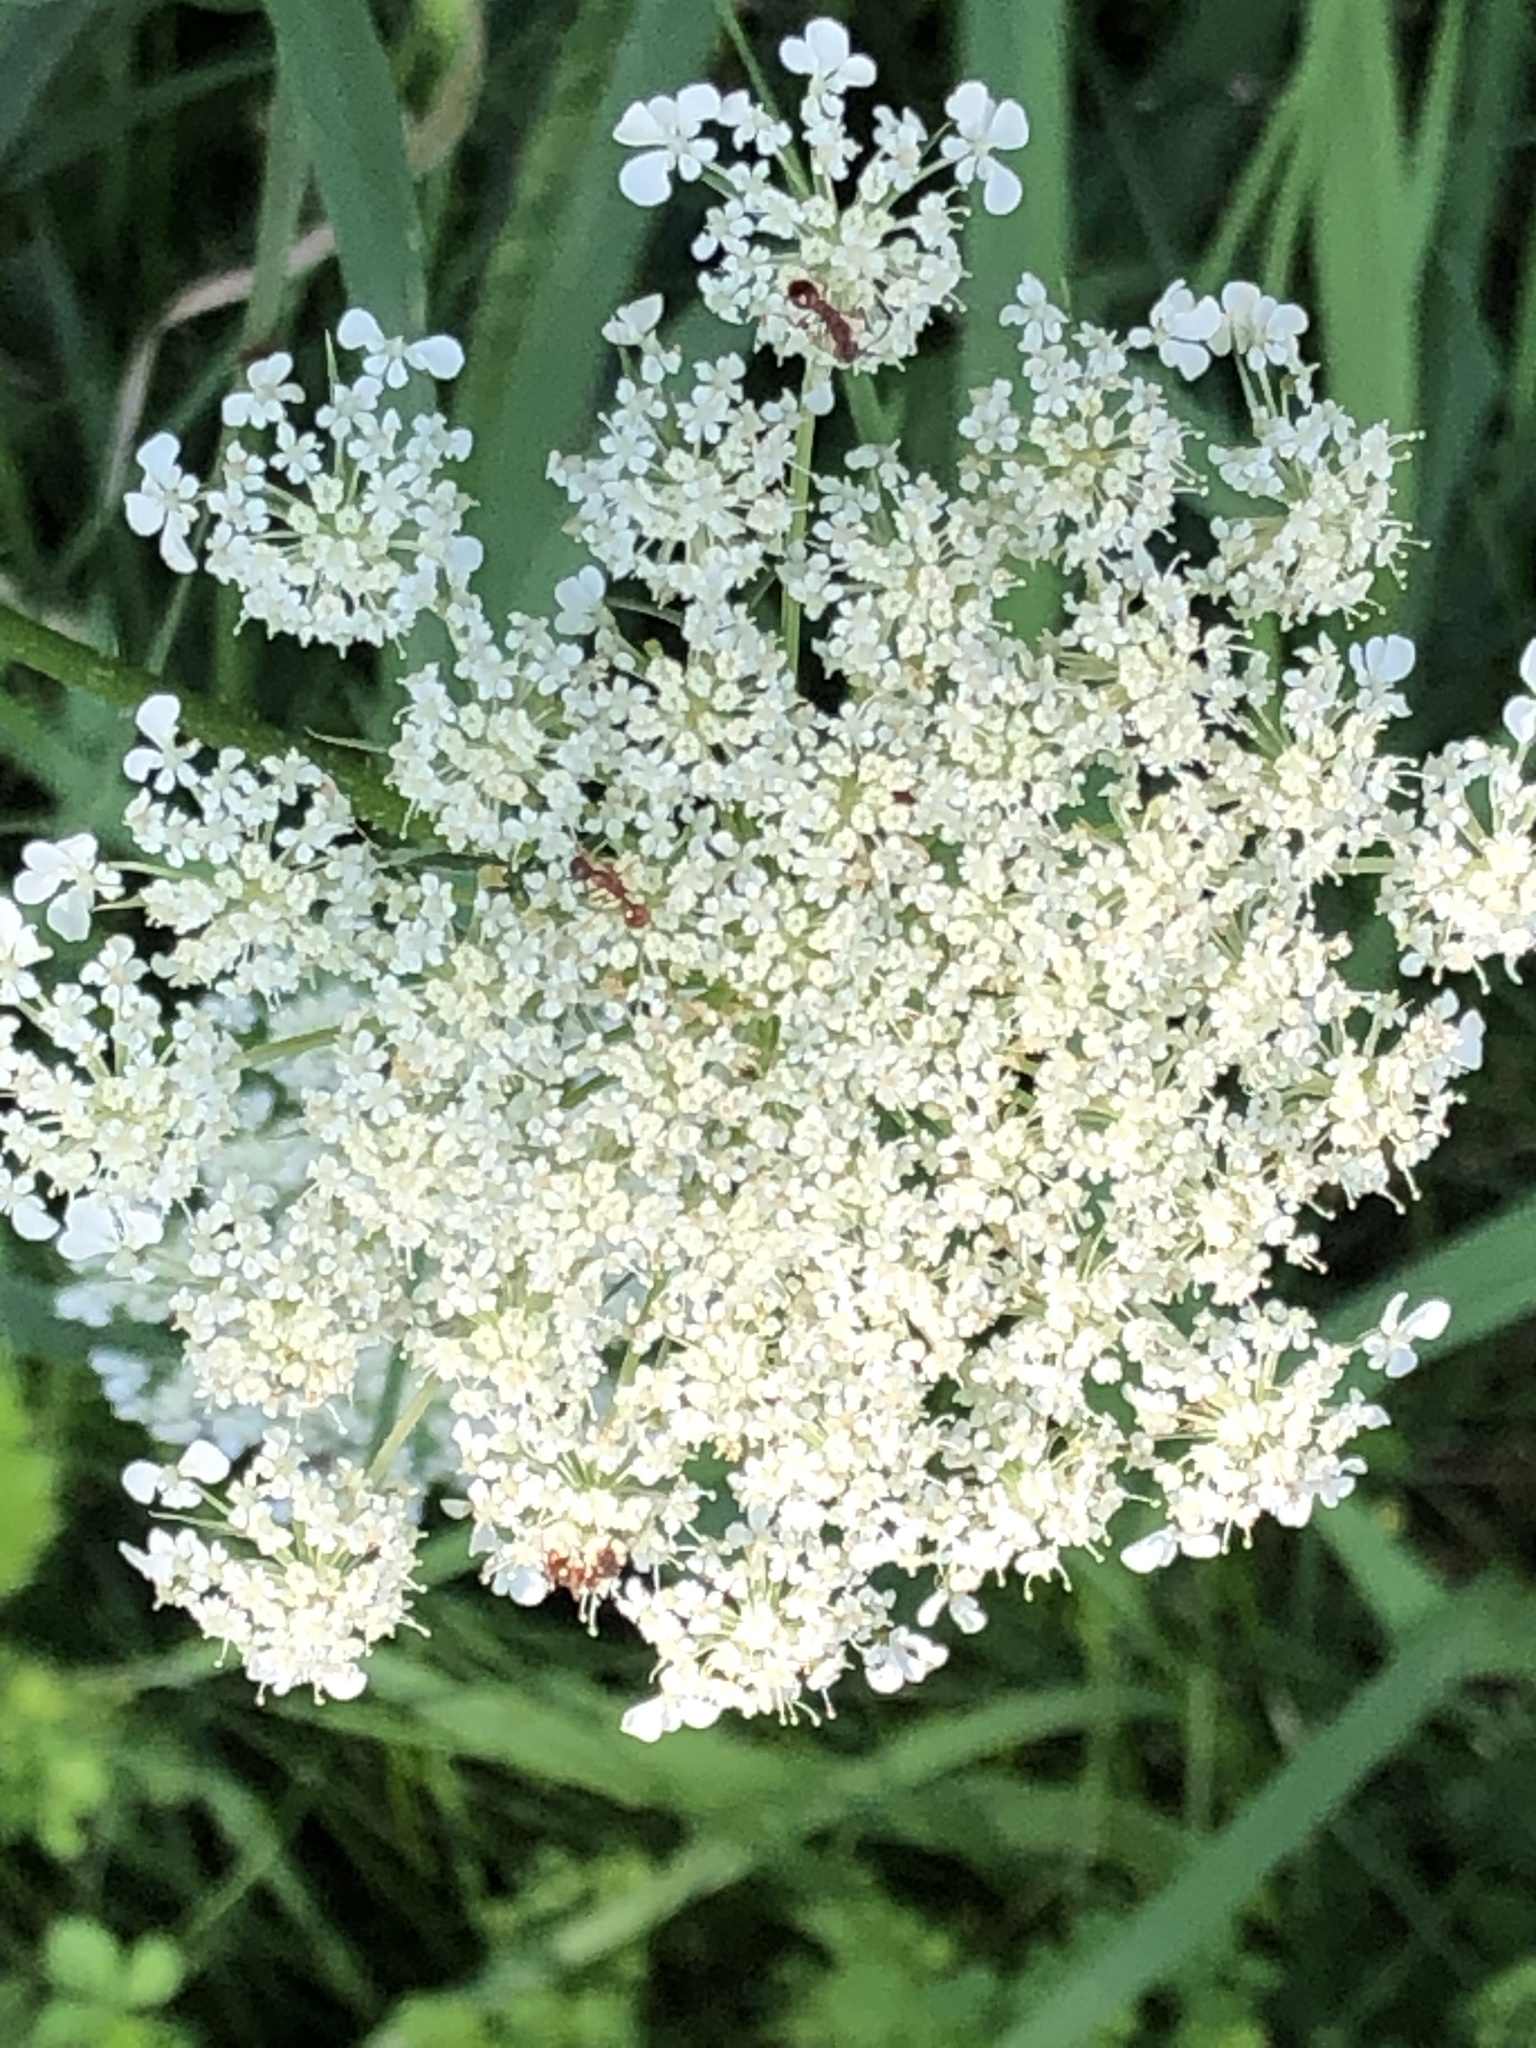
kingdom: Plantae
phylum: Tracheophyta
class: Magnoliopsida
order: Apiales
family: Apiaceae
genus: Daucus
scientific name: Daucus carota
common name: Wild carrot
